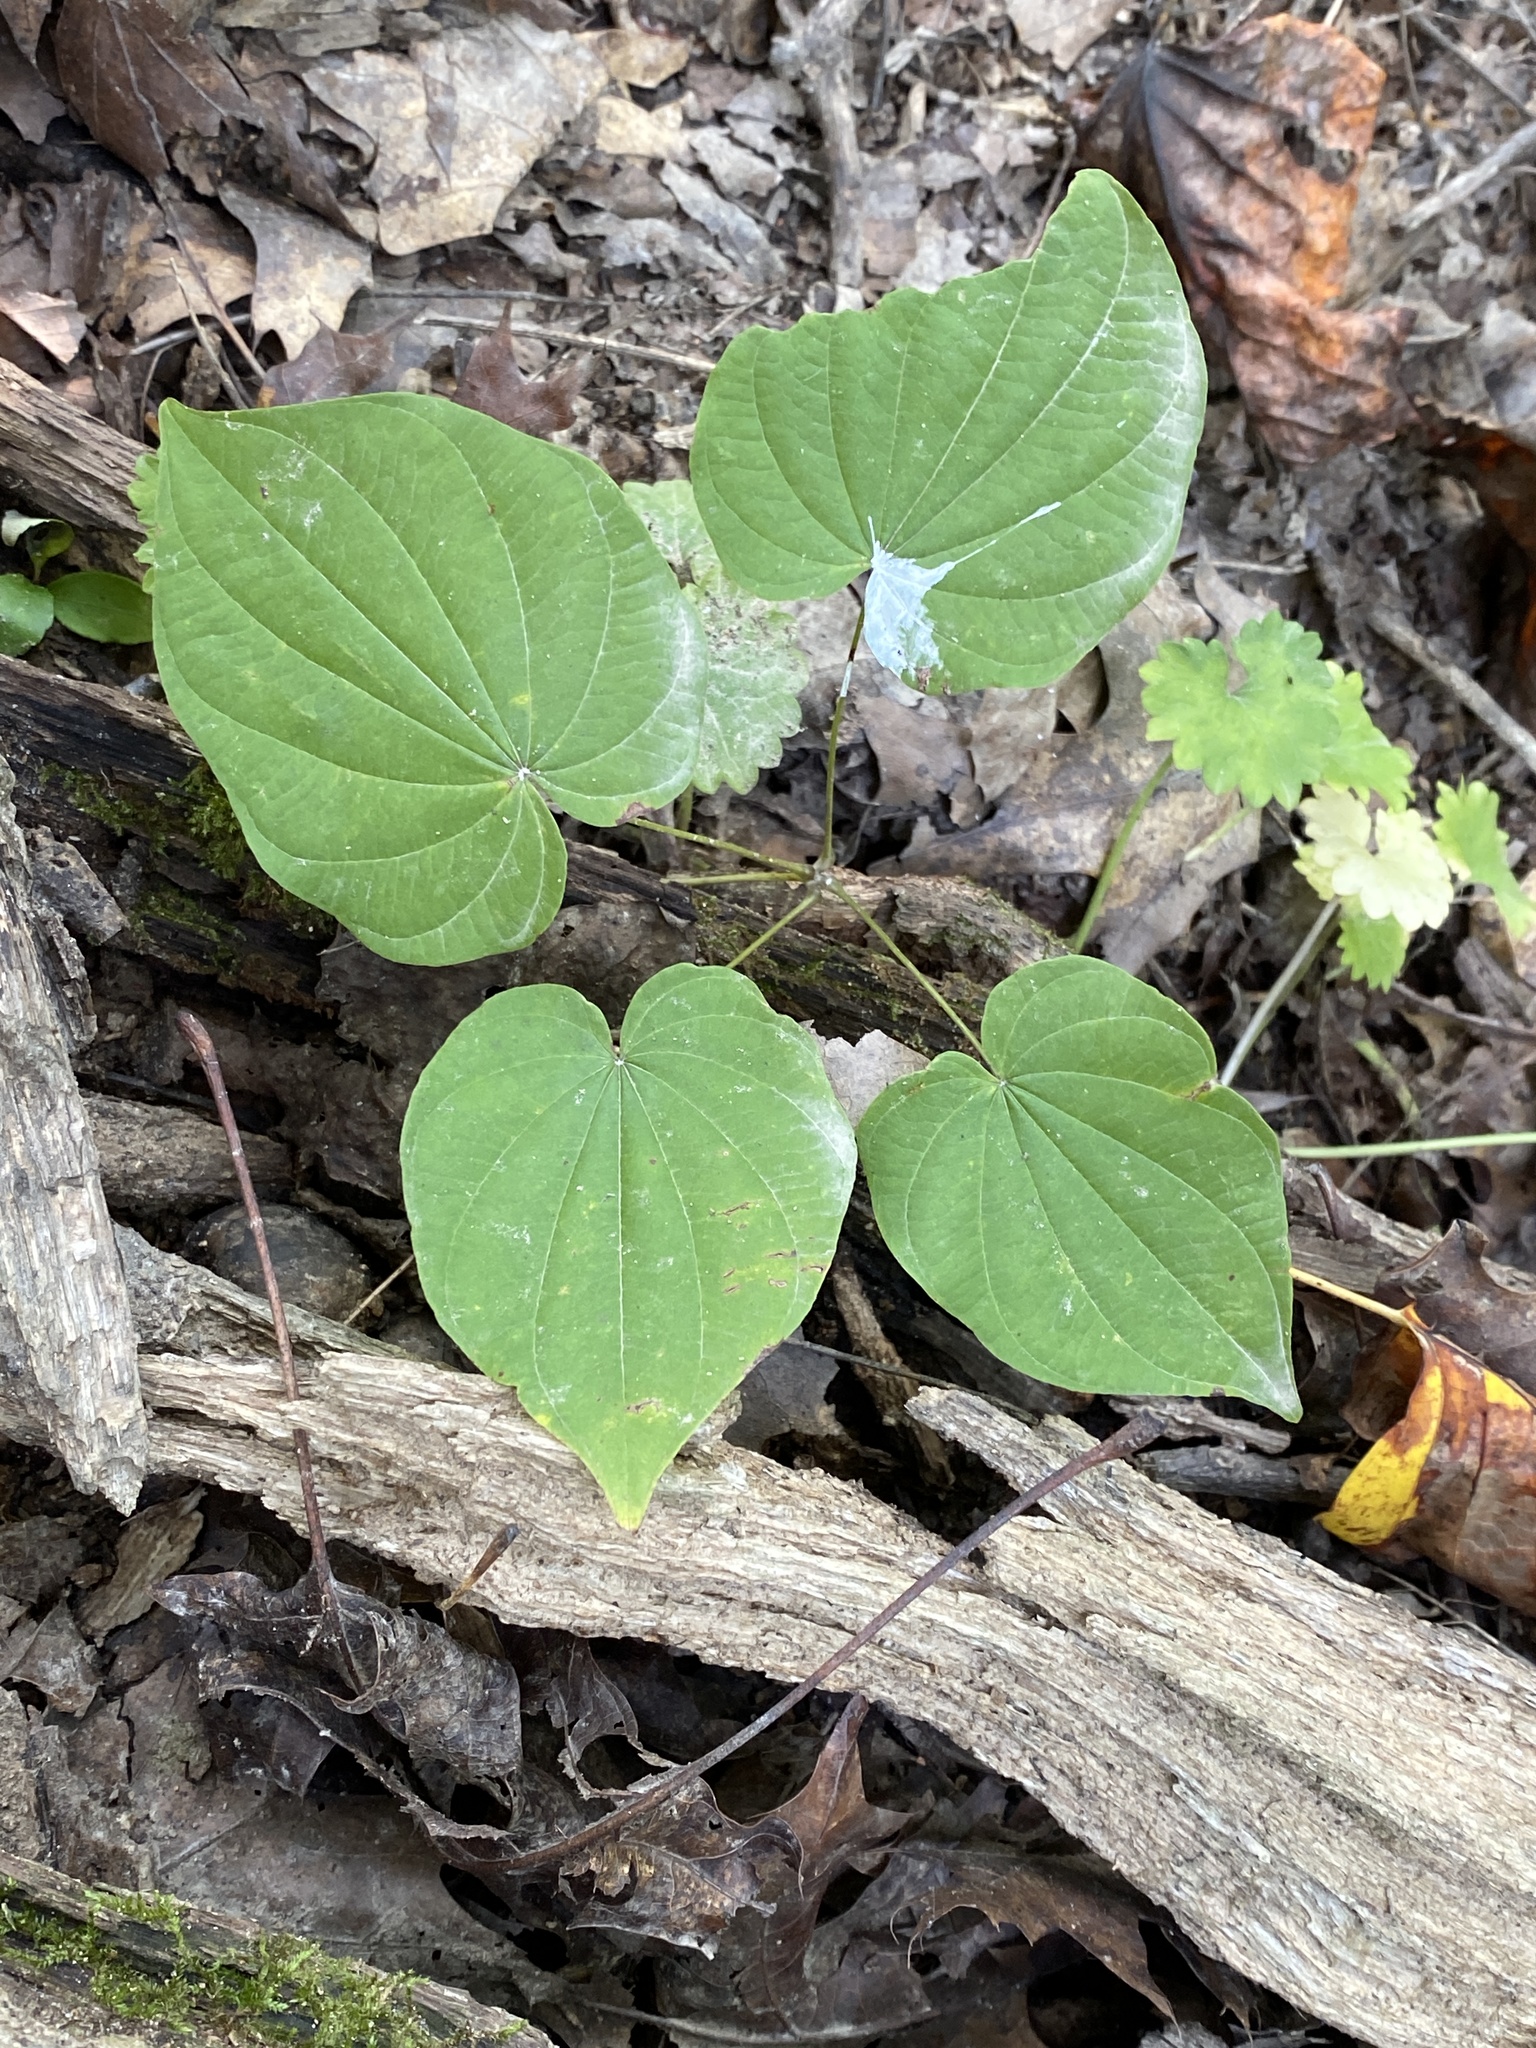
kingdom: Plantae
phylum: Tracheophyta
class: Liliopsida
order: Dioscoreales
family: Dioscoreaceae
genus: Dioscorea
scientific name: Dioscorea villosa
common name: Wild yam
